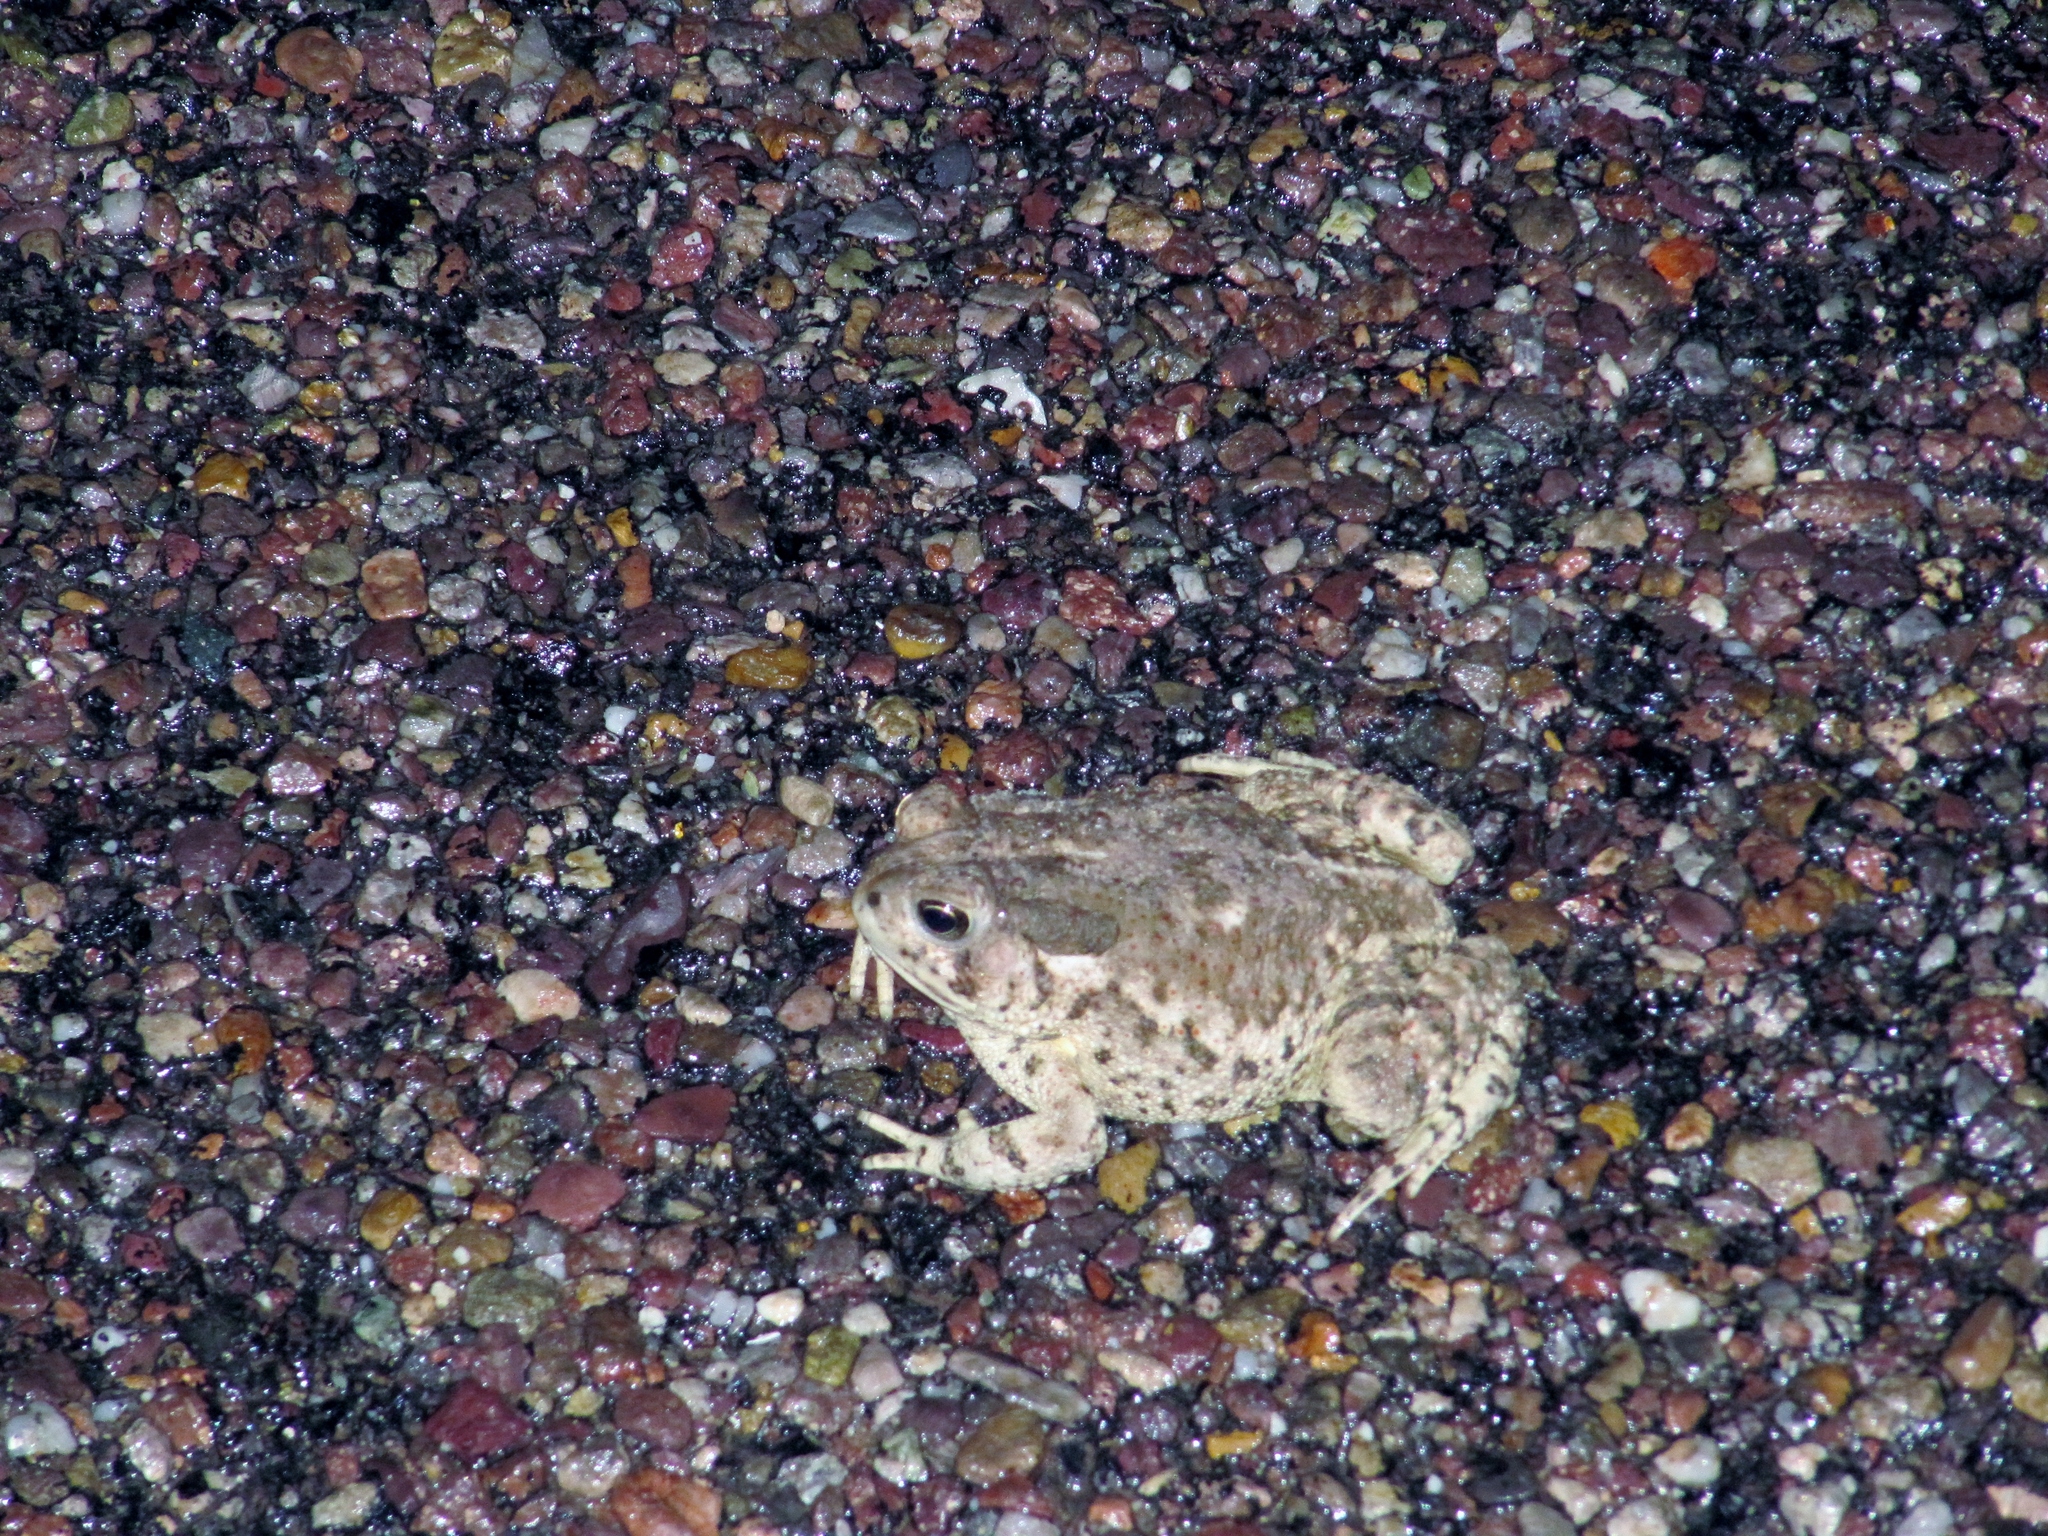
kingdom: Animalia
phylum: Chordata
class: Amphibia
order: Anura
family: Bufonidae
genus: Anaxyrus
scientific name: Anaxyrus woodhousii
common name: Woodhouse's toad
